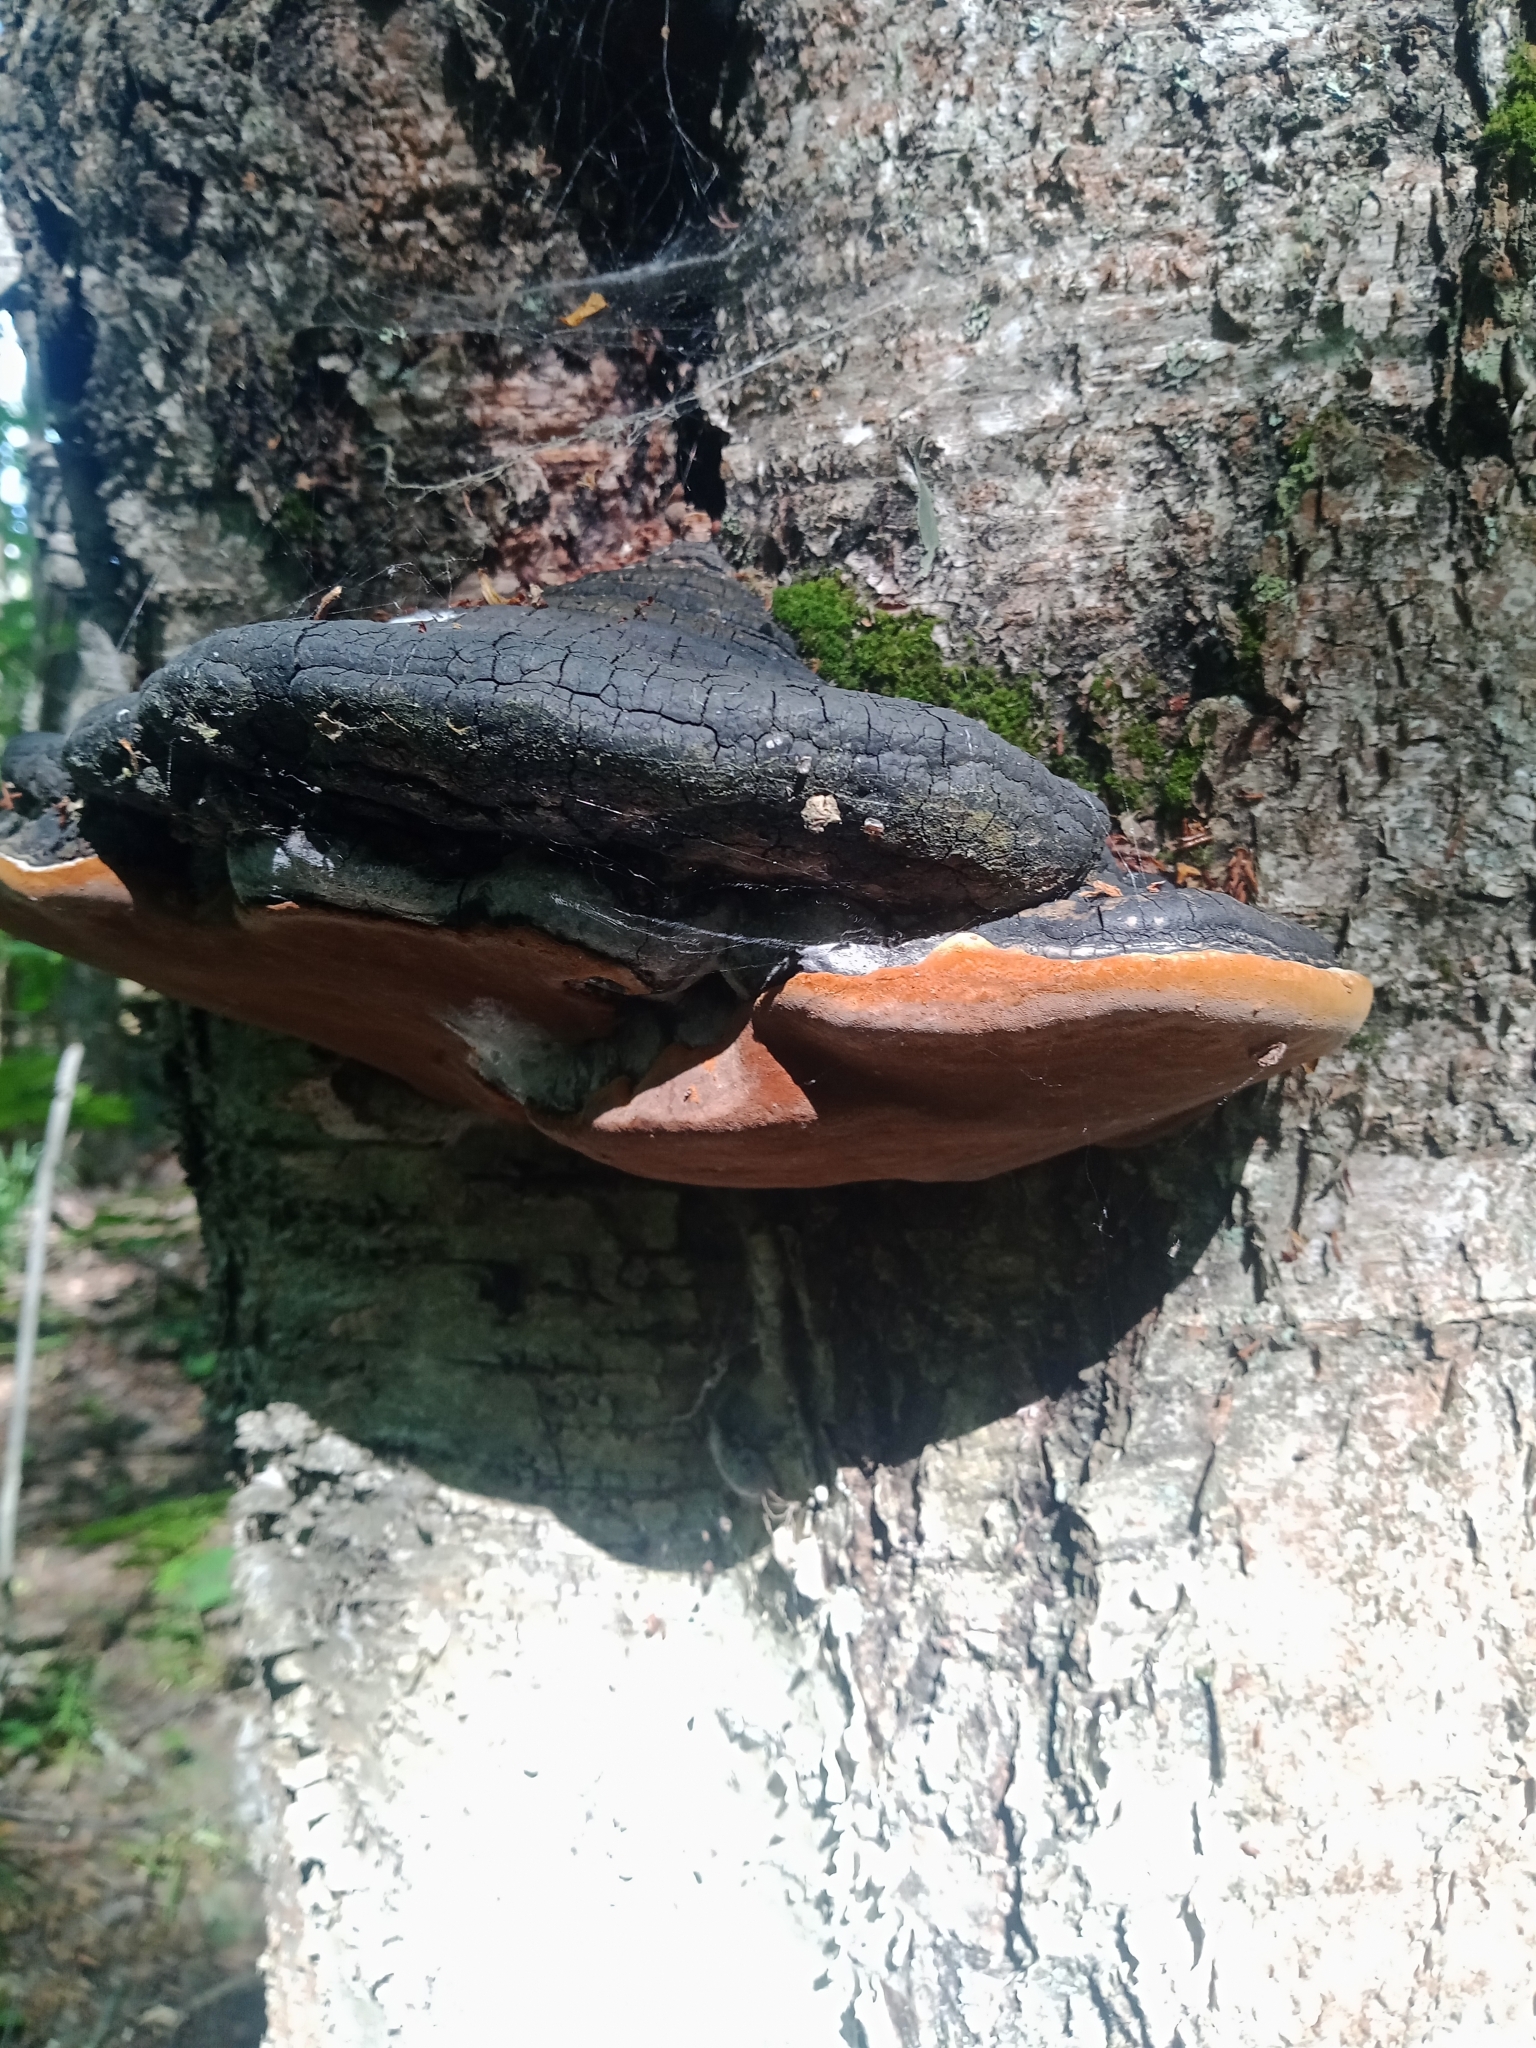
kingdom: Fungi
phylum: Basidiomycota
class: Agaricomycetes
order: Hymenochaetales
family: Hymenochaetaceae
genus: Phellinus
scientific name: Phellinus igniarius
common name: Willow bracket
